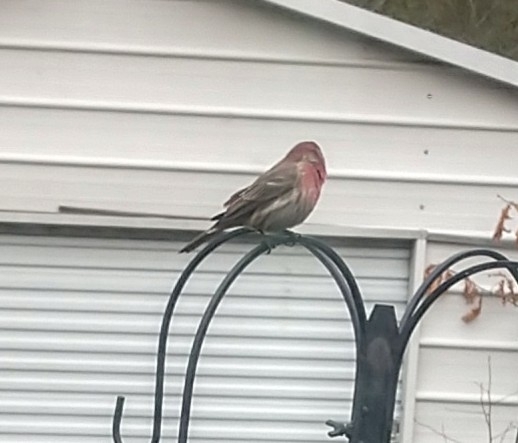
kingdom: Animalia
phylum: Chordata
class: Aves
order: Passeriformes
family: Fringillidae
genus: Haemorhous
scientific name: Haemorhous mexicanus
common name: House finch
